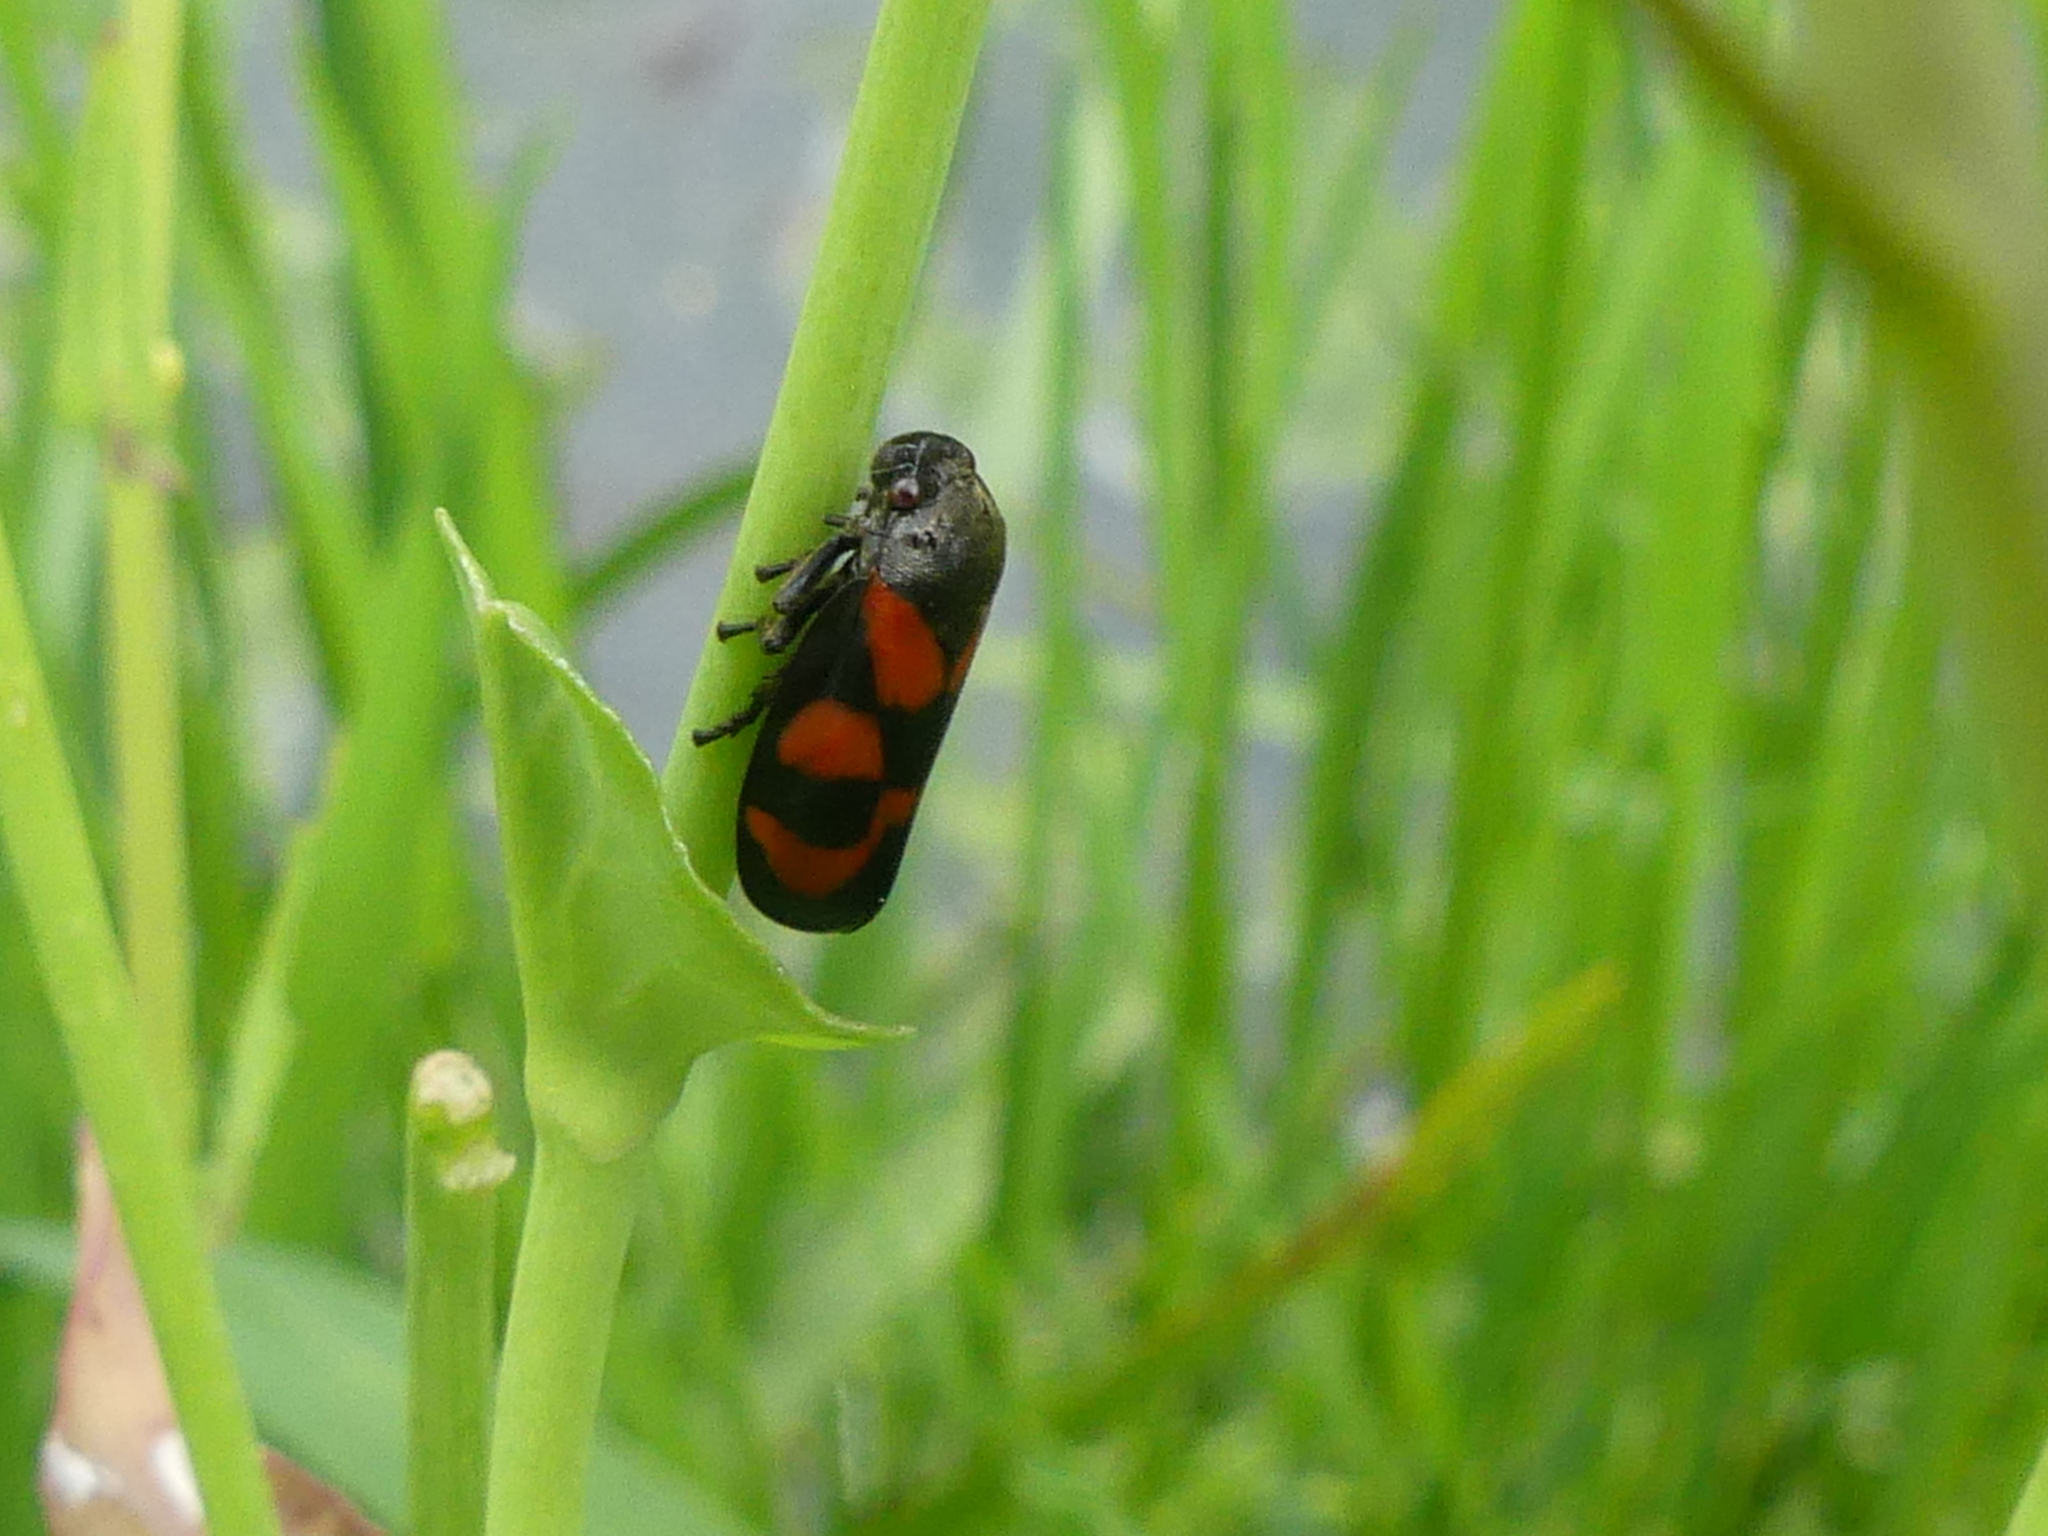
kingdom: Animalia
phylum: Arthropoda
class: Insecta
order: Hemiptera
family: Cercopidae
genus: Cercopis
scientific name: Cercopis vulnerata
